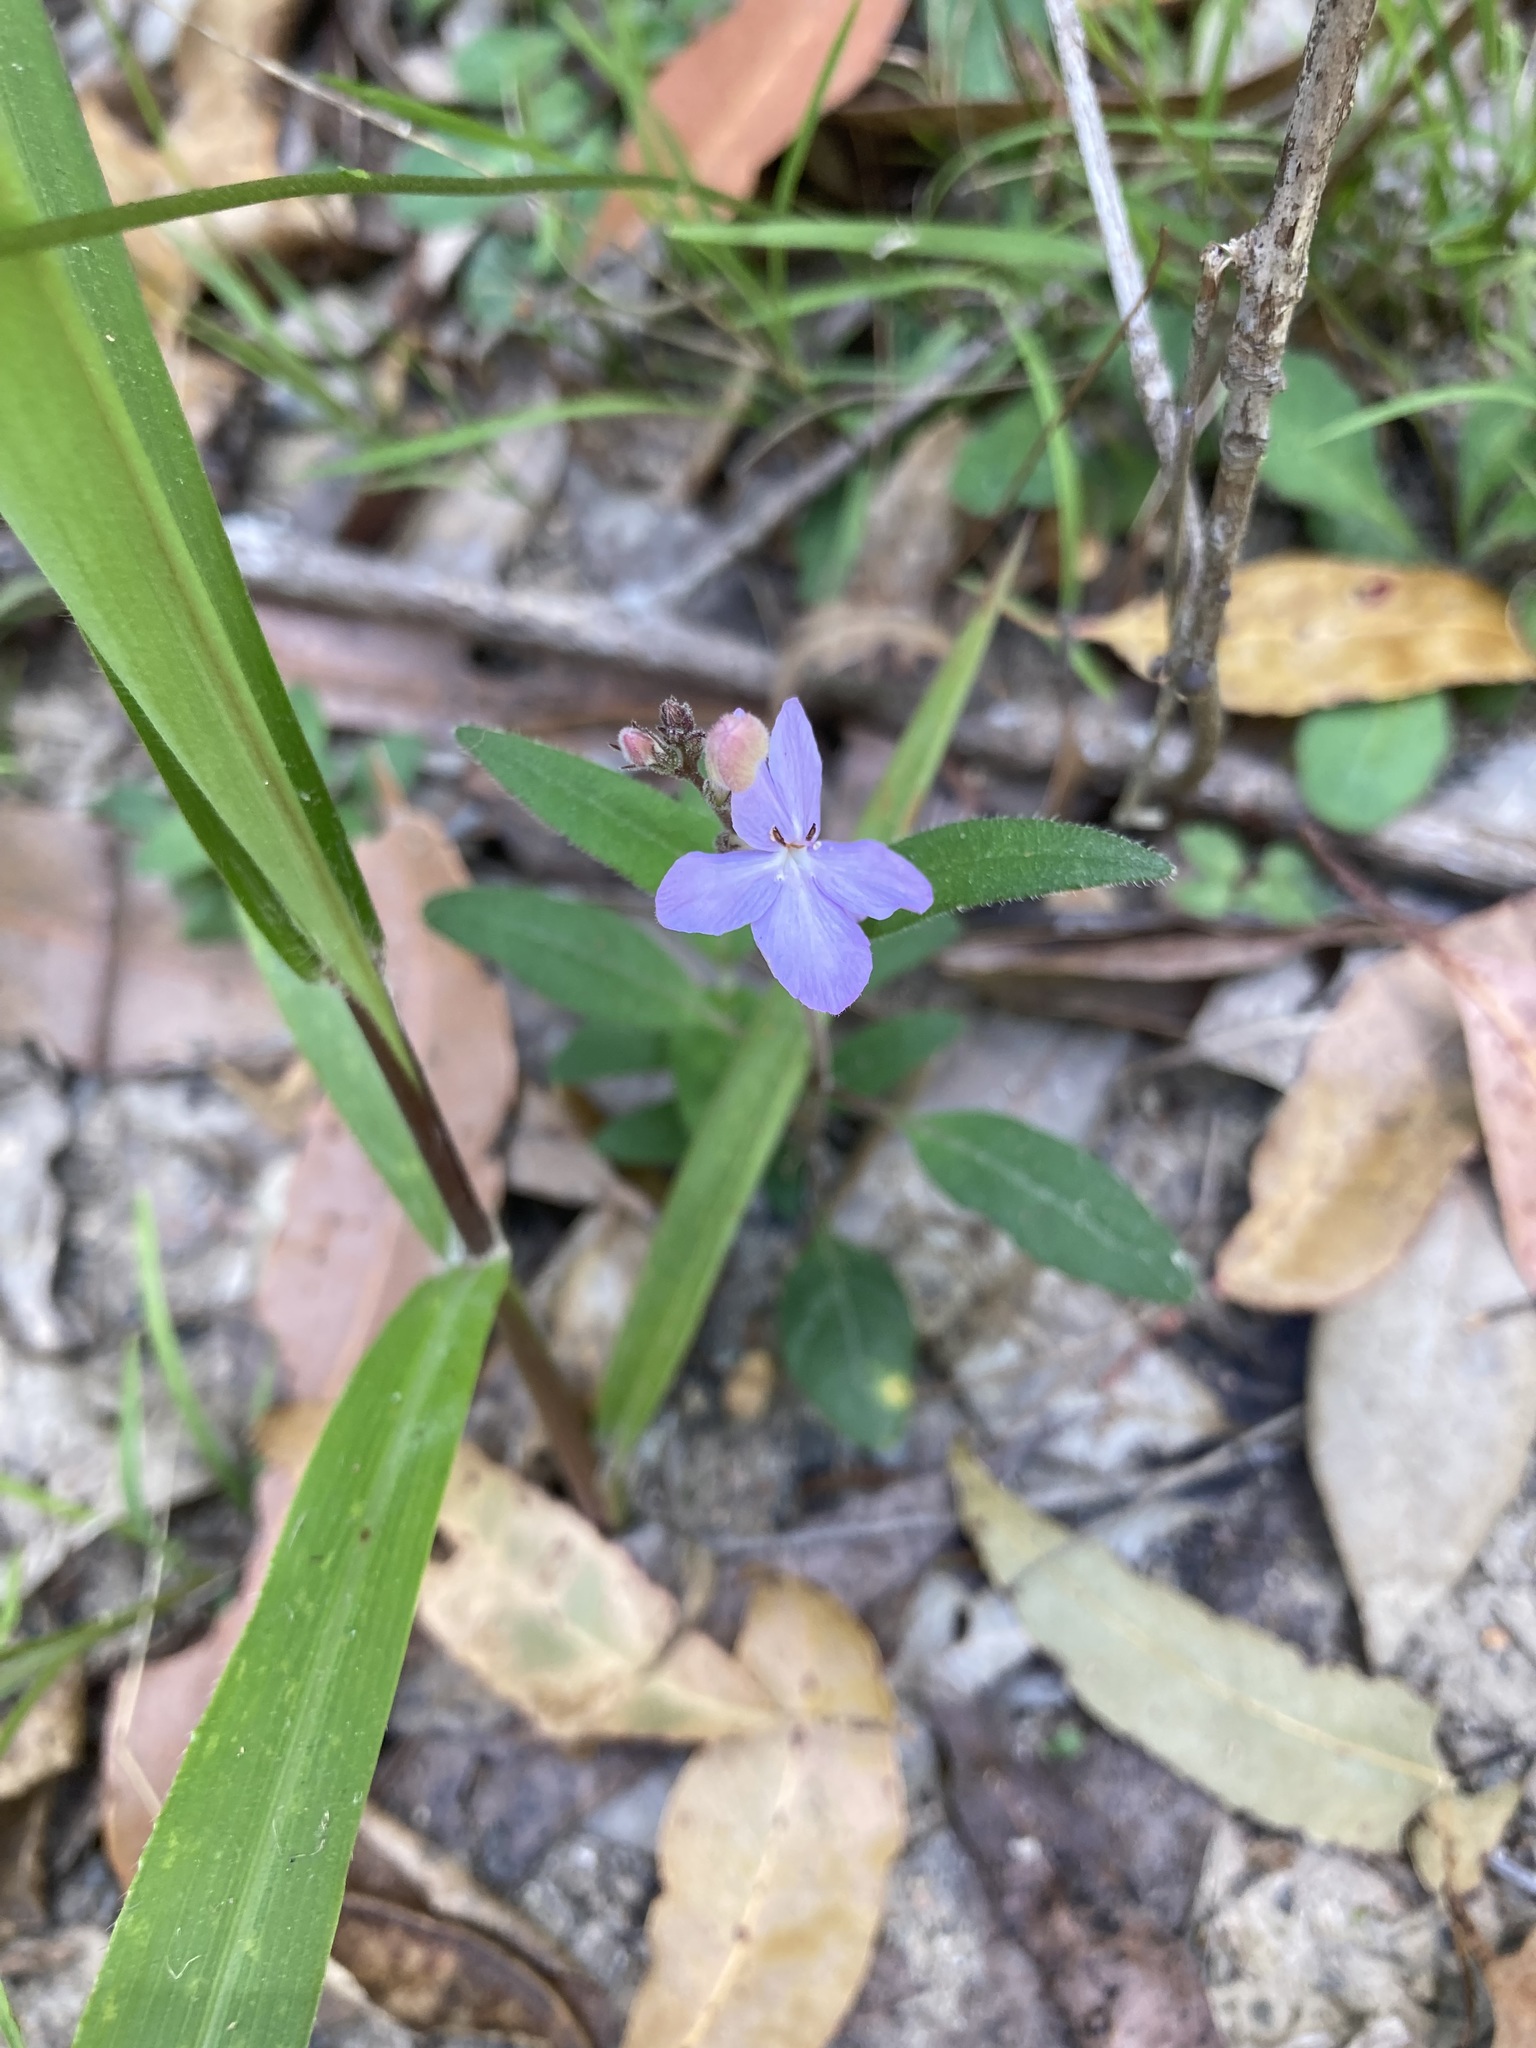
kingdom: Plantae
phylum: Tracheophyta
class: Magnoliopsida
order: Lamiales
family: Acanthaceae
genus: Pseuderanthemum
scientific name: Pseuderanthemum variabile
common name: Night and afternoon
